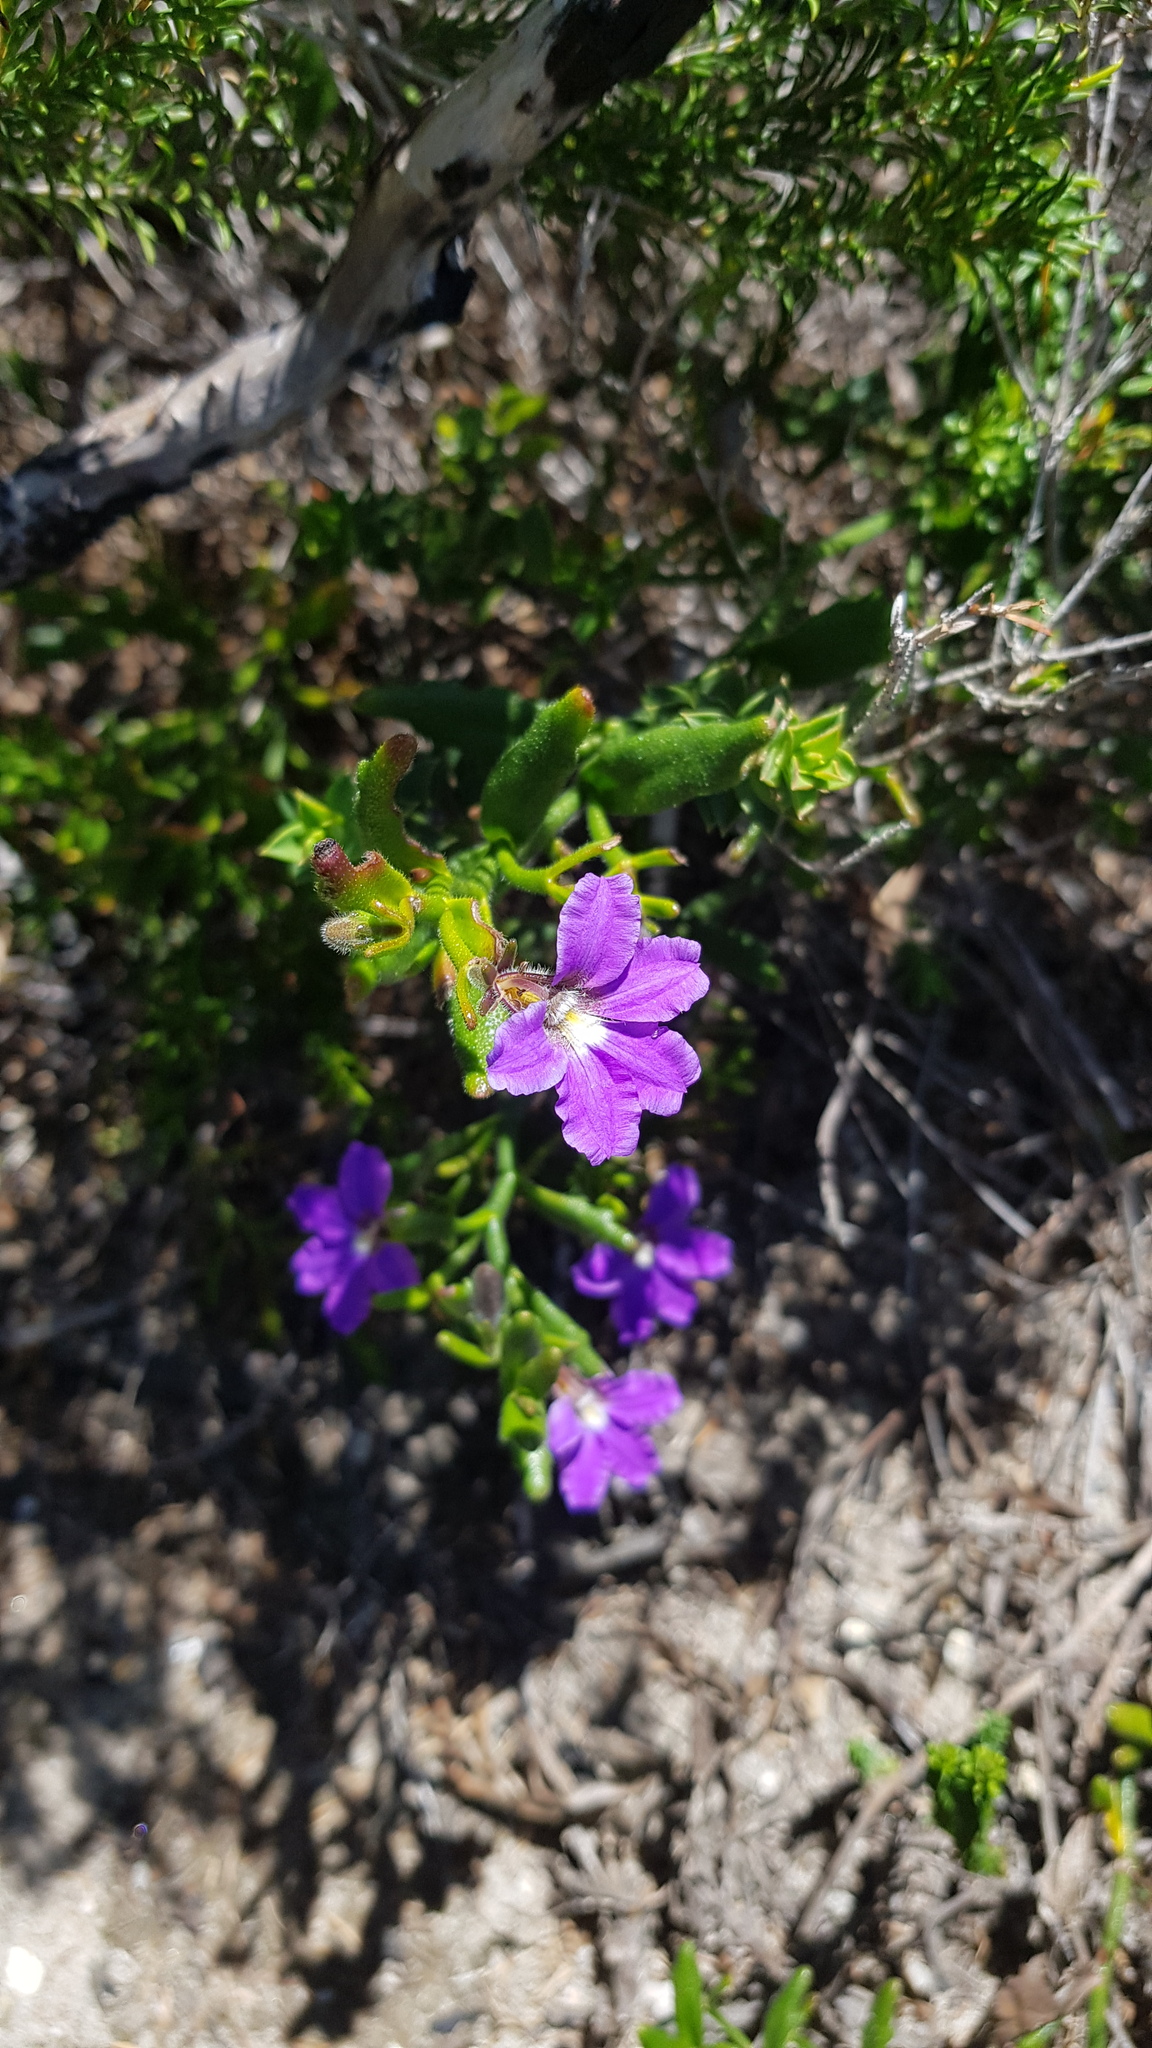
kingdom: Plantae
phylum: Tracheophyta
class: Magnoliopsida
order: Asterales
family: Goodeniaceae
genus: Scaevola
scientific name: Scaevola ramosissima
